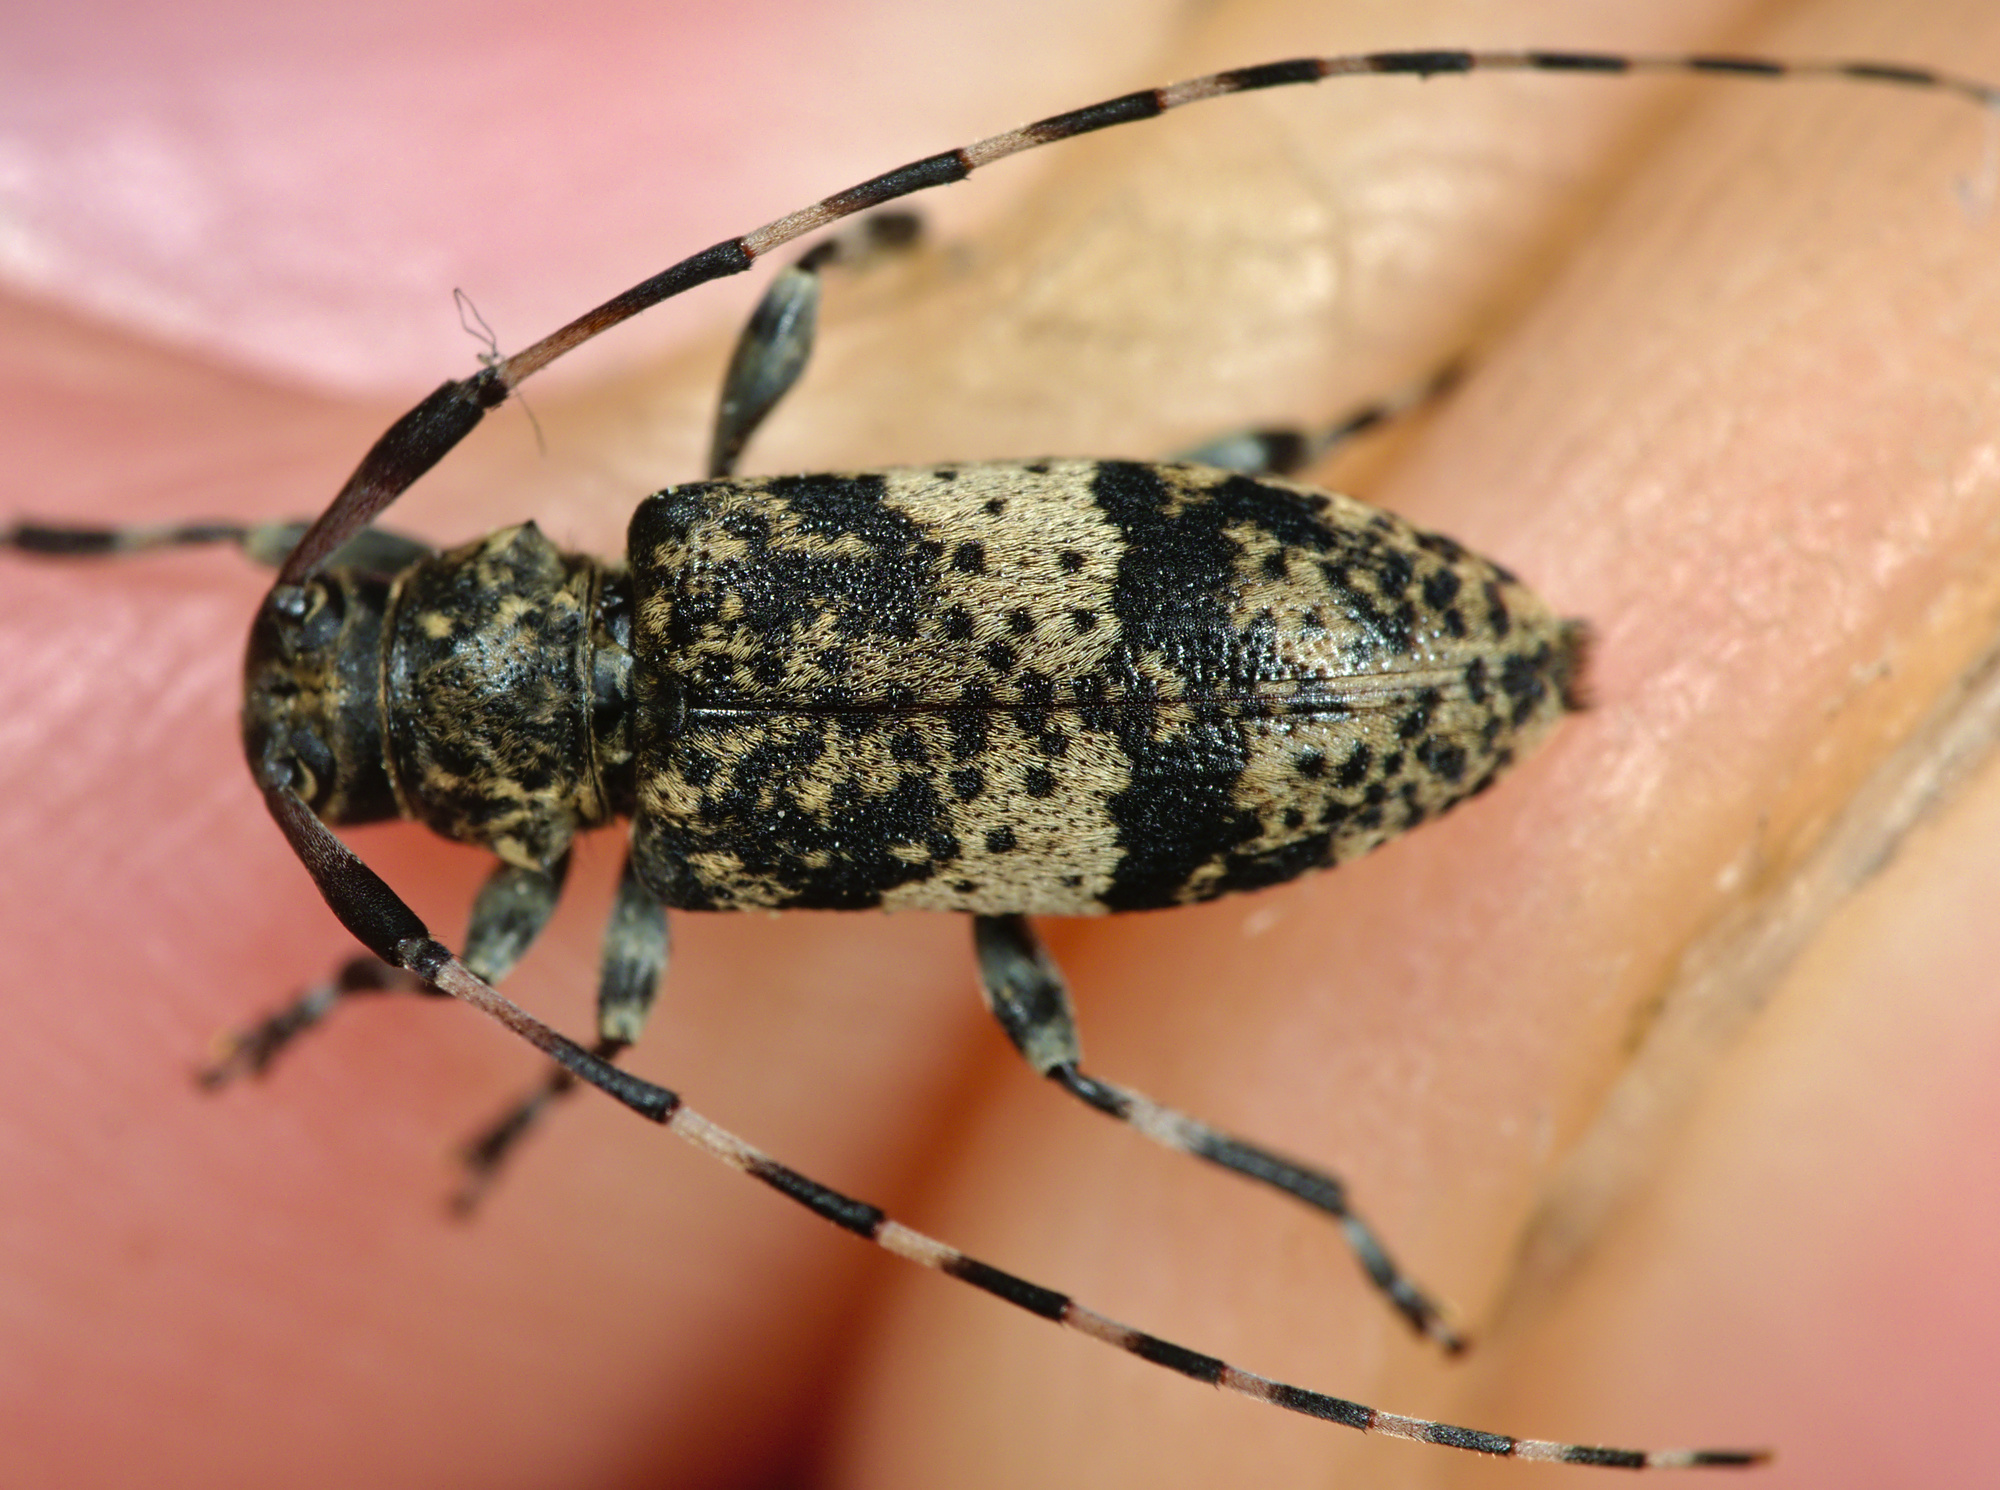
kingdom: Animalia
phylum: Arthropoda
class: Insecta
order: Coleoptera
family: Cerambycidae
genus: Leiopus
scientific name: Leiopus linnei
